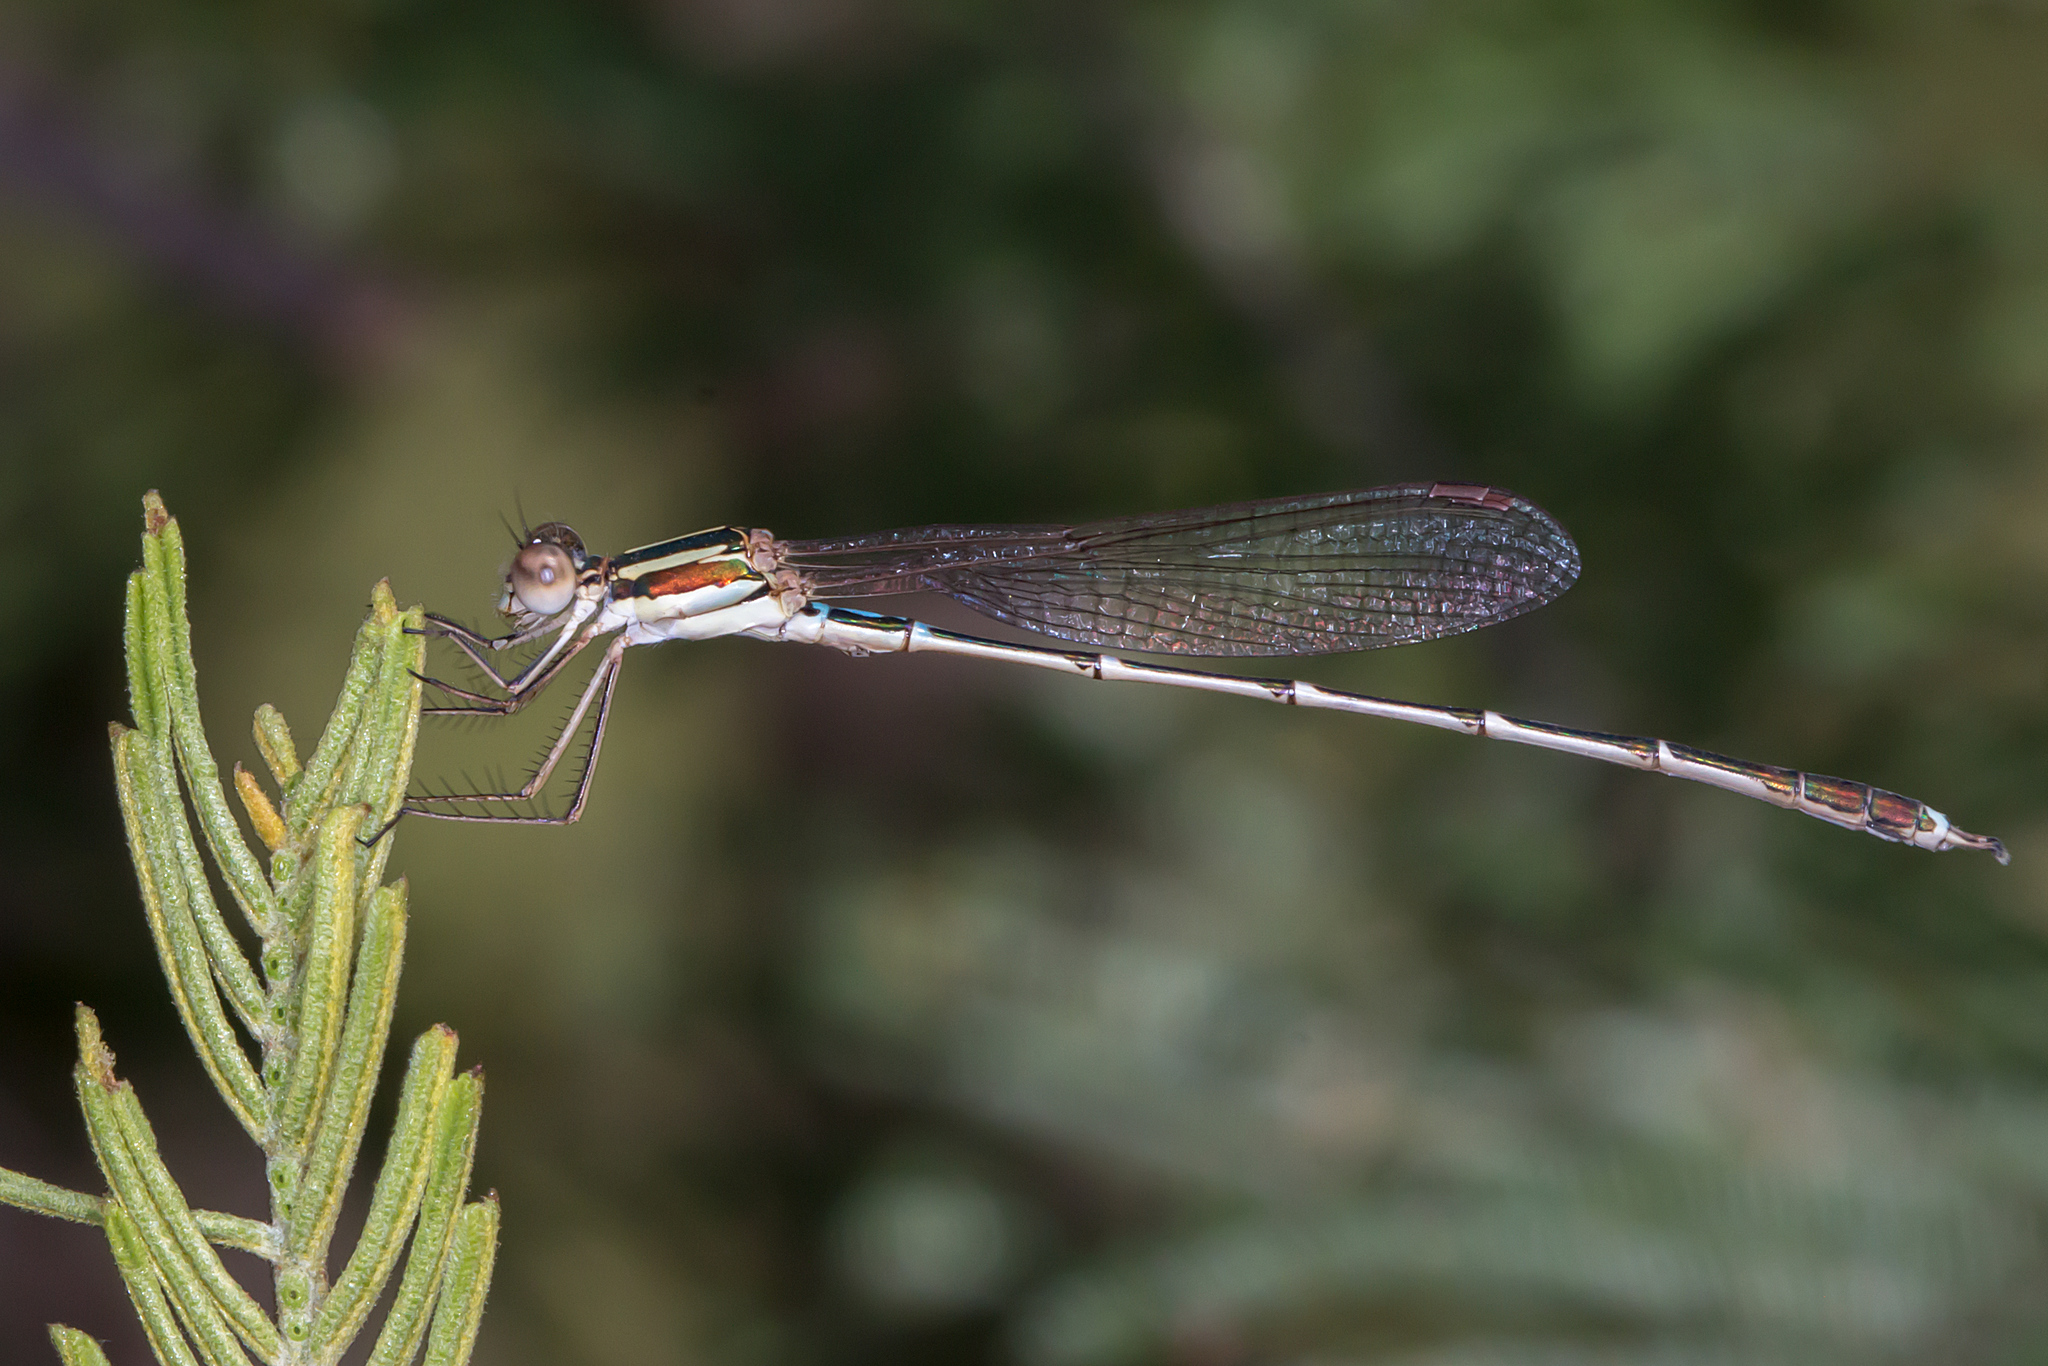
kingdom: Animalia
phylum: Arthropoda
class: Insecta
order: Odonata
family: Lestidae
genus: Austrolestes
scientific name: Austrolestes analis
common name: Slender ringtail
